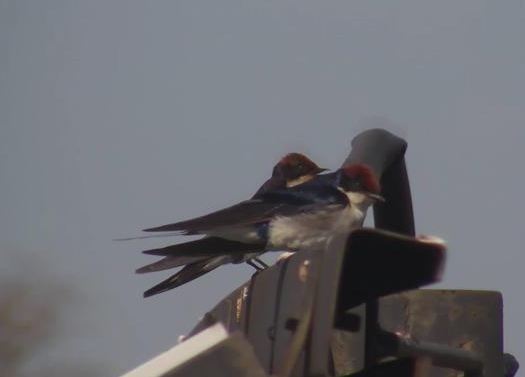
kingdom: Animalia
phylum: Chordata
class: Aves
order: Passeriformes
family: Hirundinidae
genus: Hirundo
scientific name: Hirundo smithii
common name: Wire-tailed swallow
